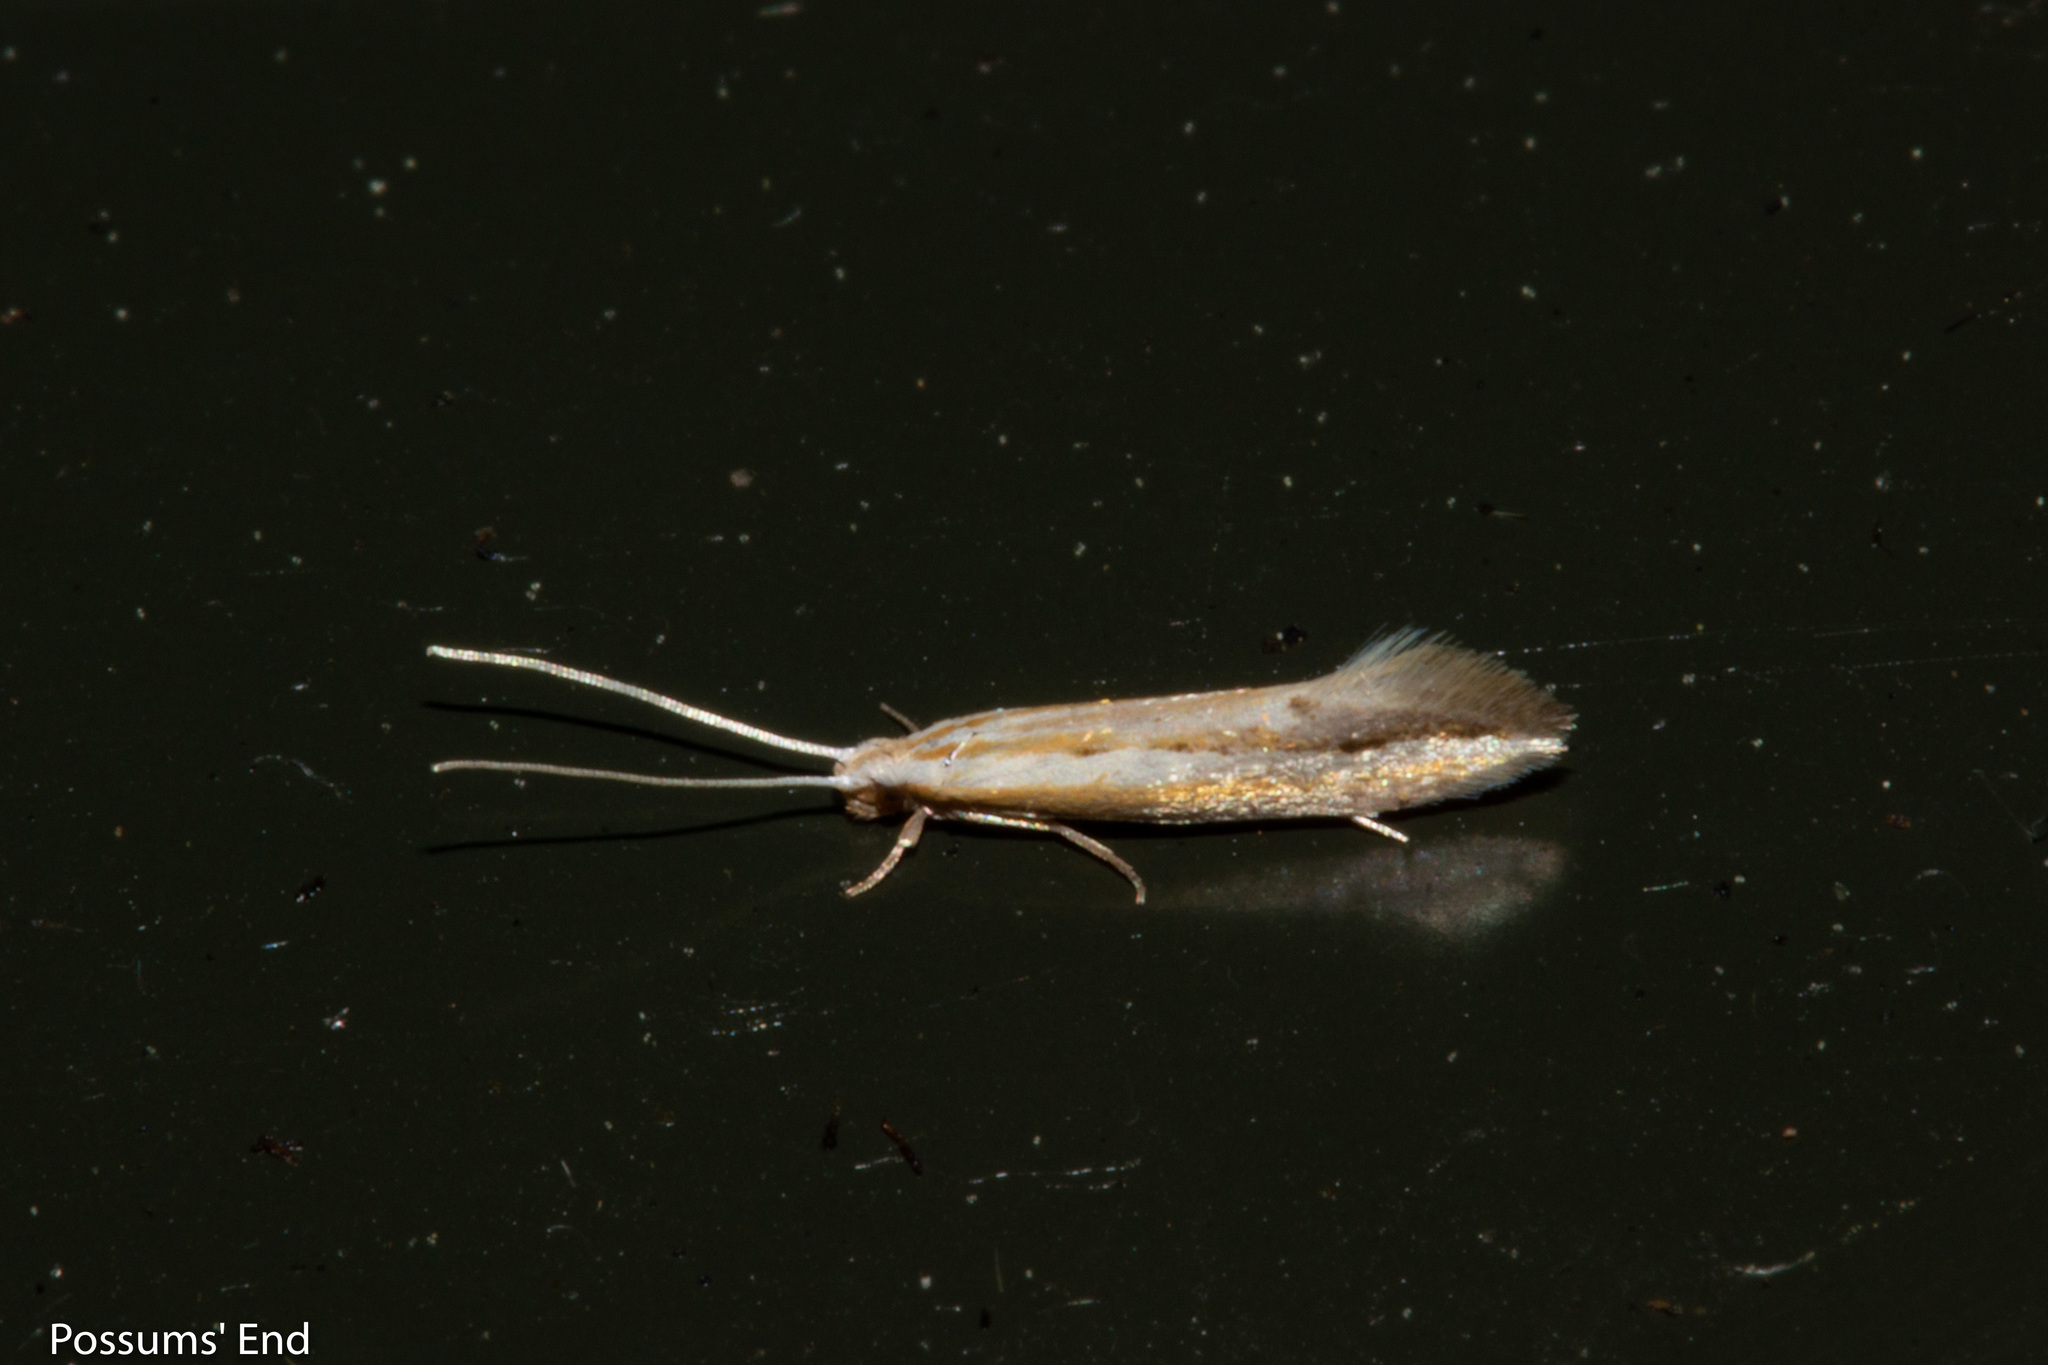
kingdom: Animalia
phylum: Arthropoda
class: Insecta
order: Lepidoptera
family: Tineidae
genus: Sagephora
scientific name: Sagephora exsanguis
